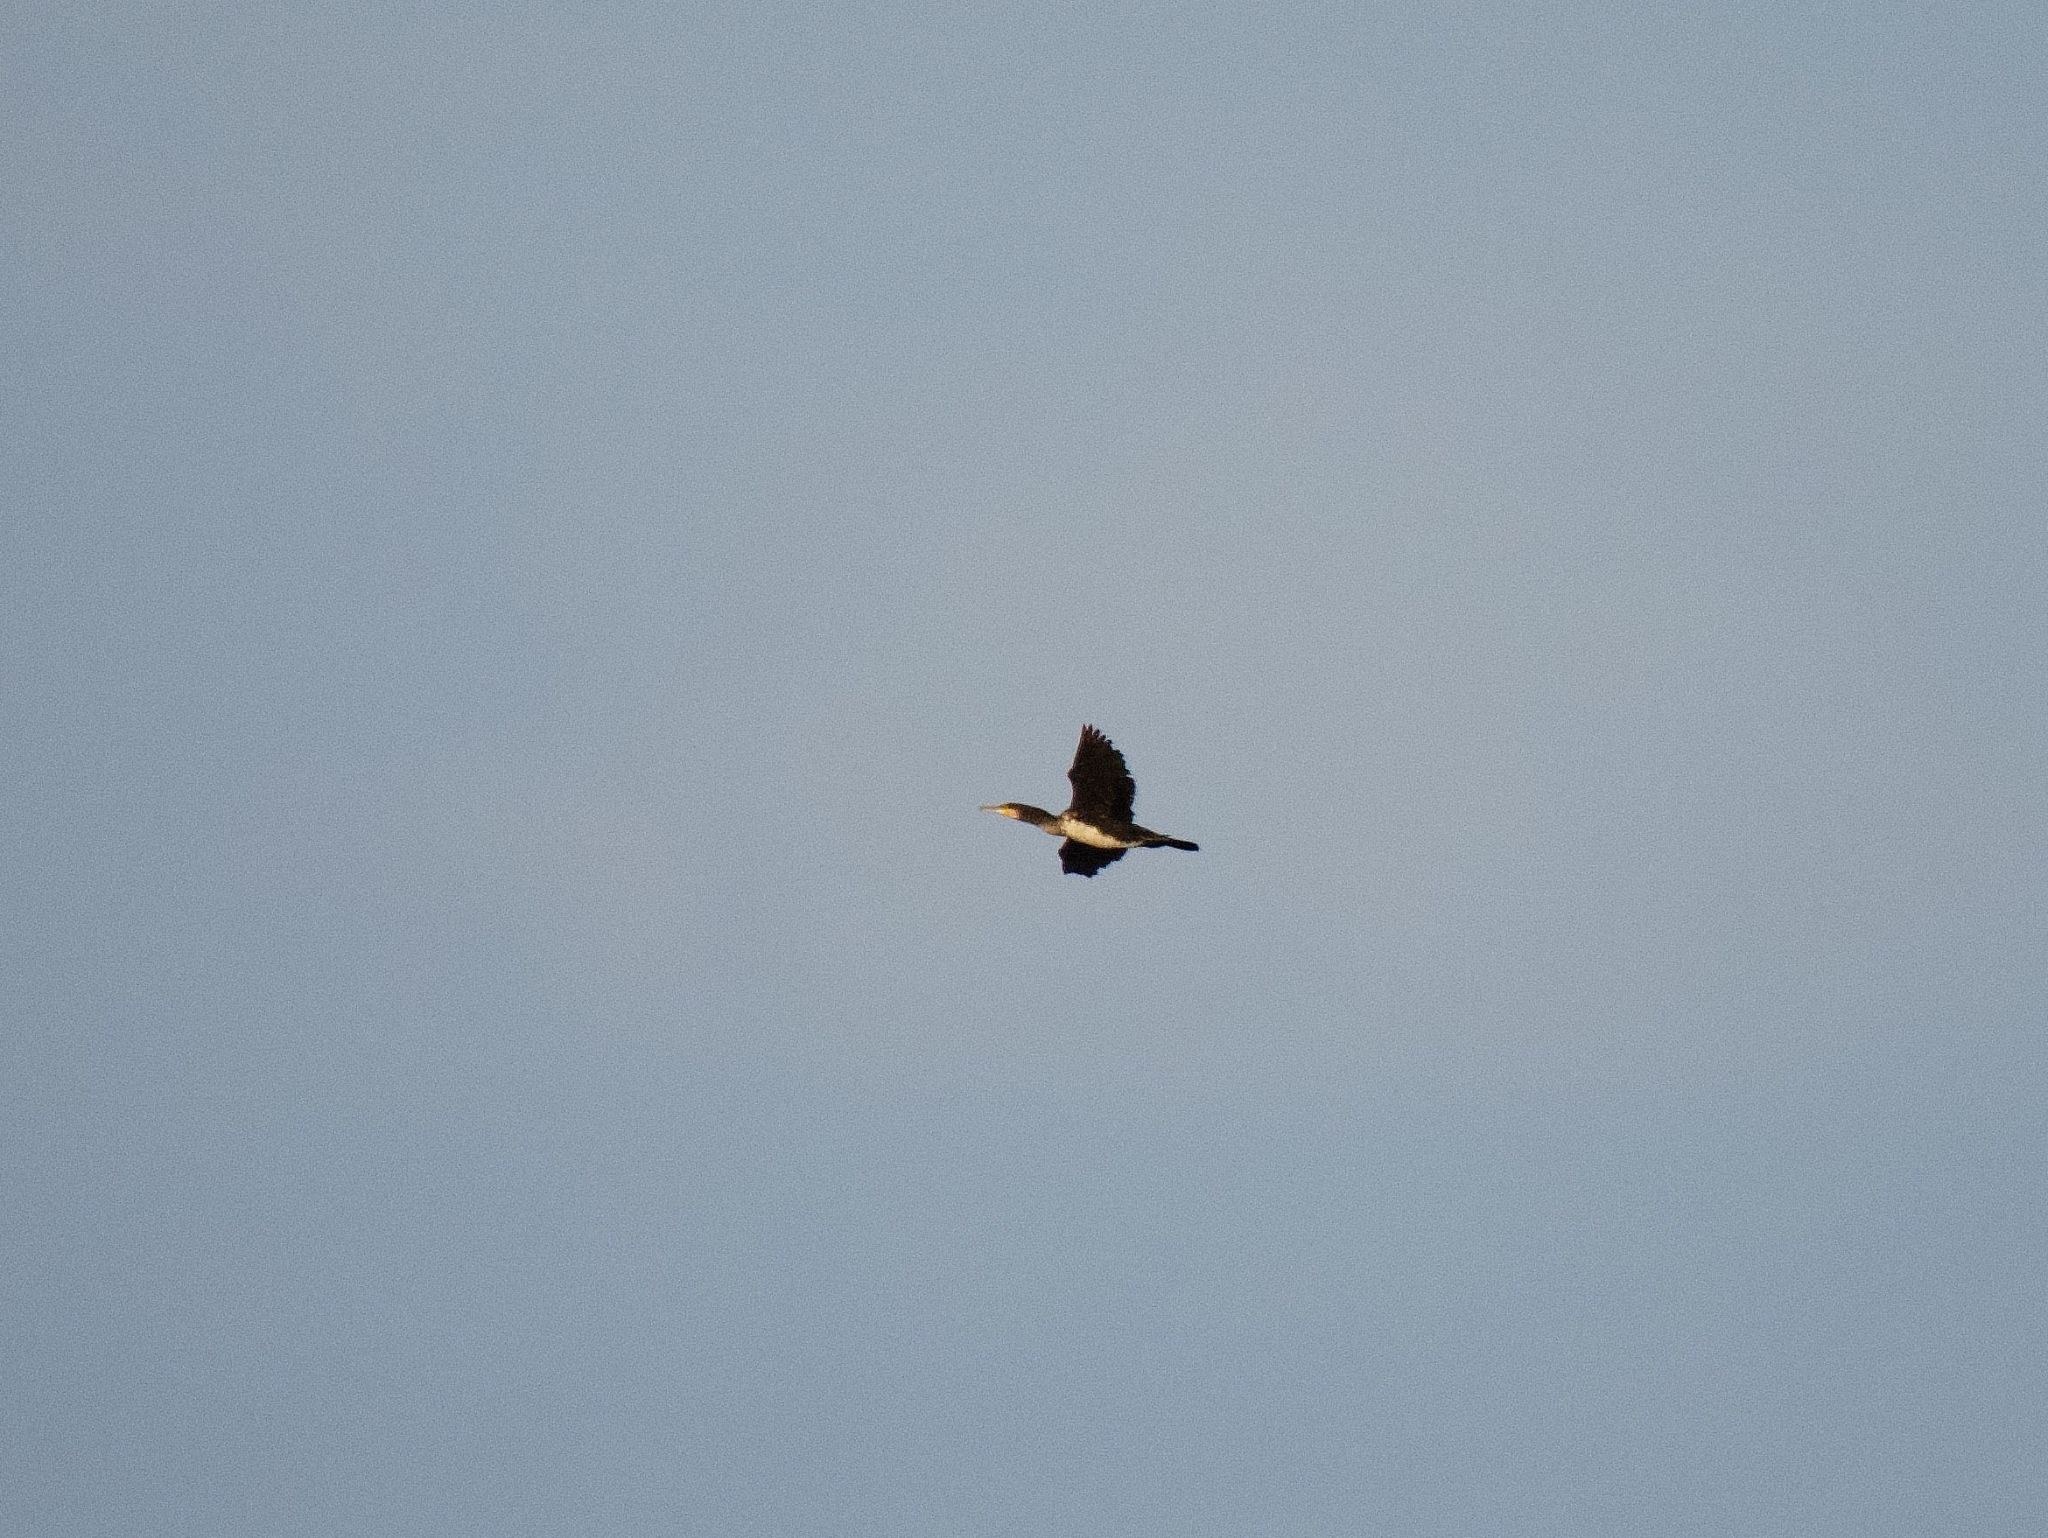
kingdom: Animalia
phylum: Chordata
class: Aves
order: Suliformes
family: Phalacrocoracidae
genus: Phalacrocorax
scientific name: Phalacrocorax carbo
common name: Great cormorant
